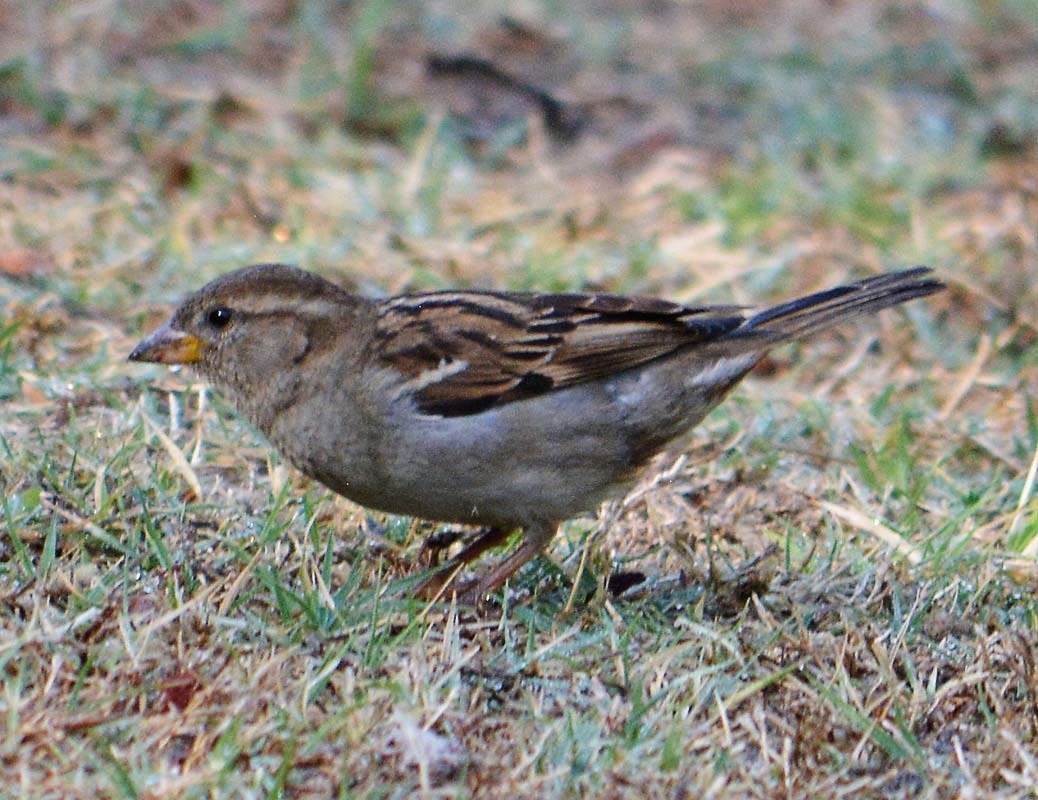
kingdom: Animalia
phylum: Chordata
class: Aves
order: Passeriformes
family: Passeridae
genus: Passer
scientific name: Passer domesticus
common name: House sparrow
